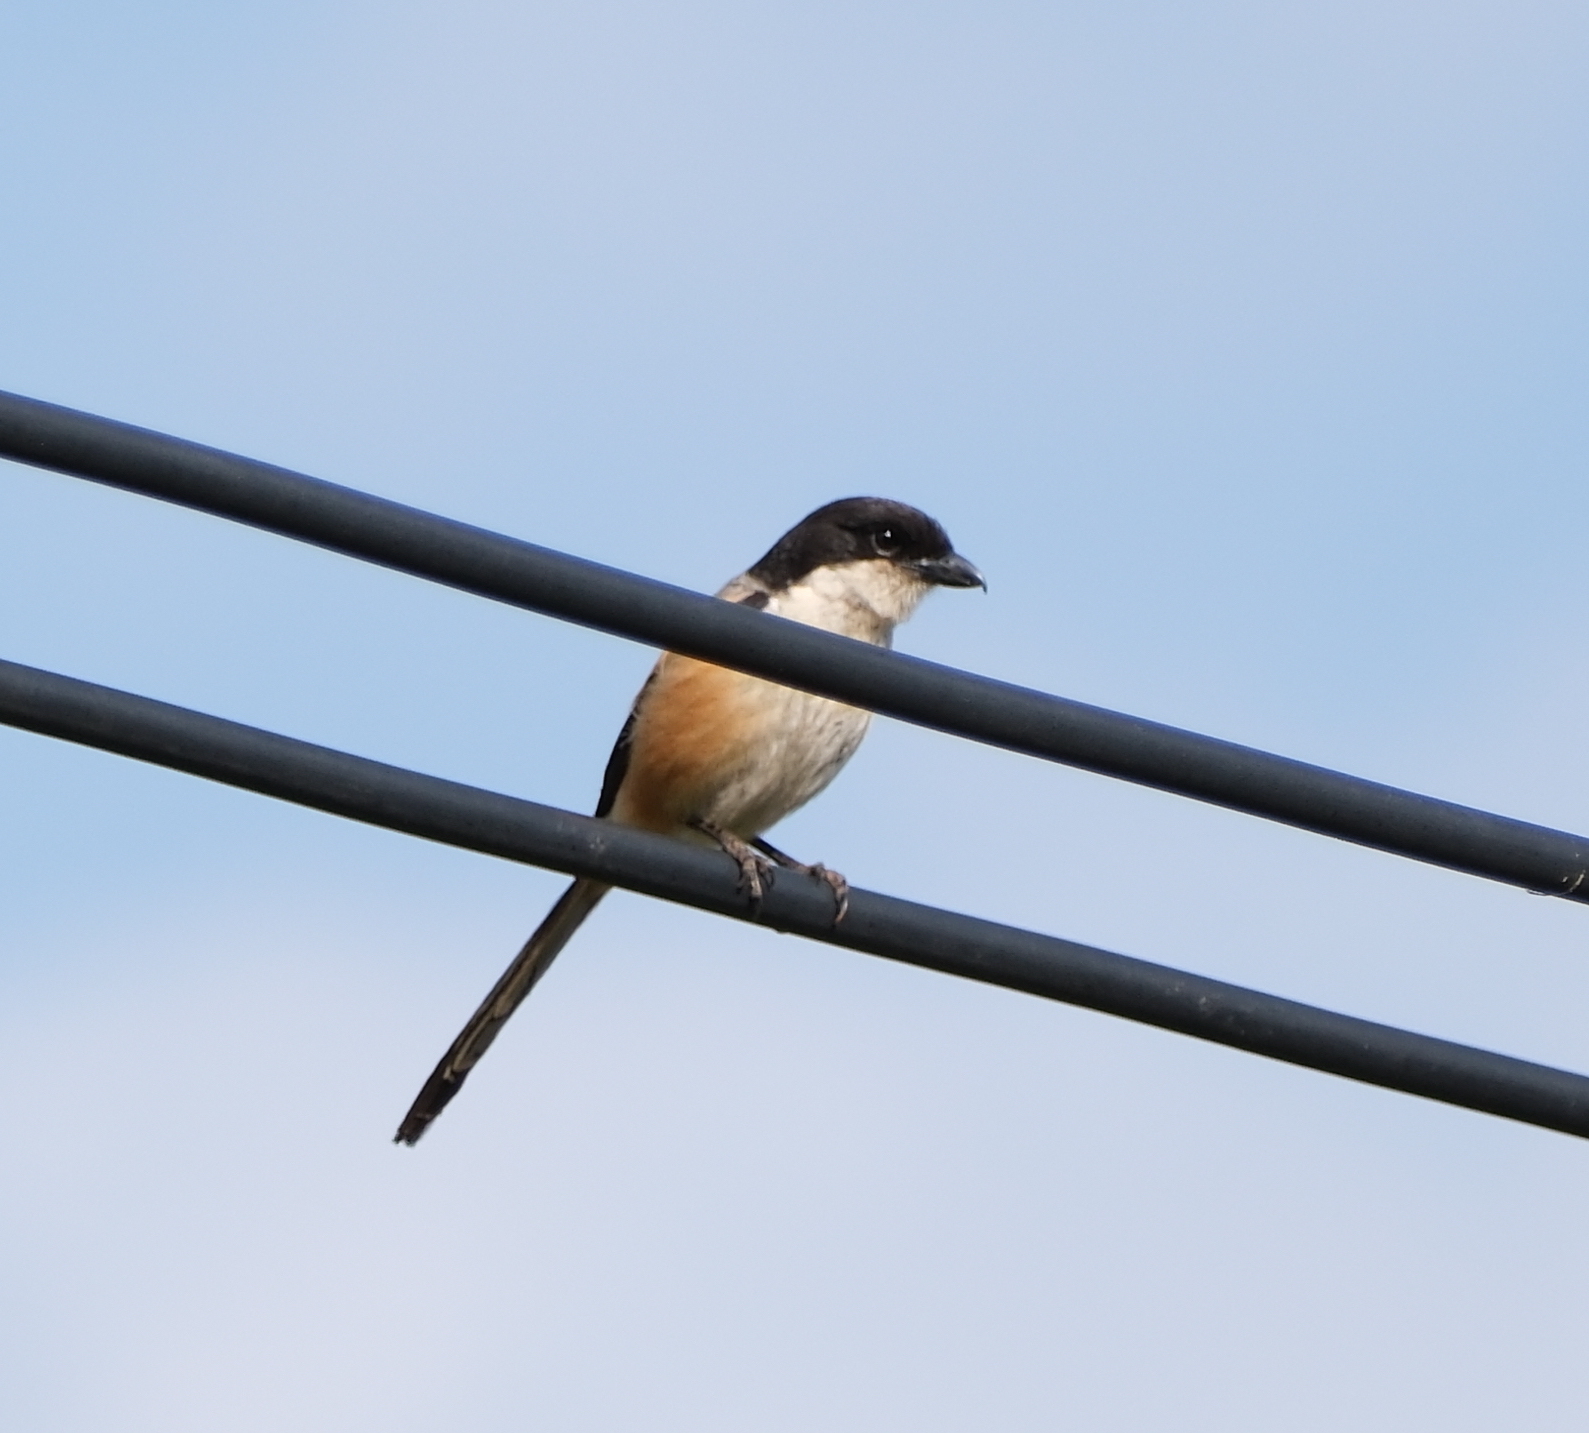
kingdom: Animalia
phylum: Chordata
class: Aves
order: Passeriformes
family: Laniidae
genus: Lanius
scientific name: Lanius schach
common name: Long-tailed shrike
